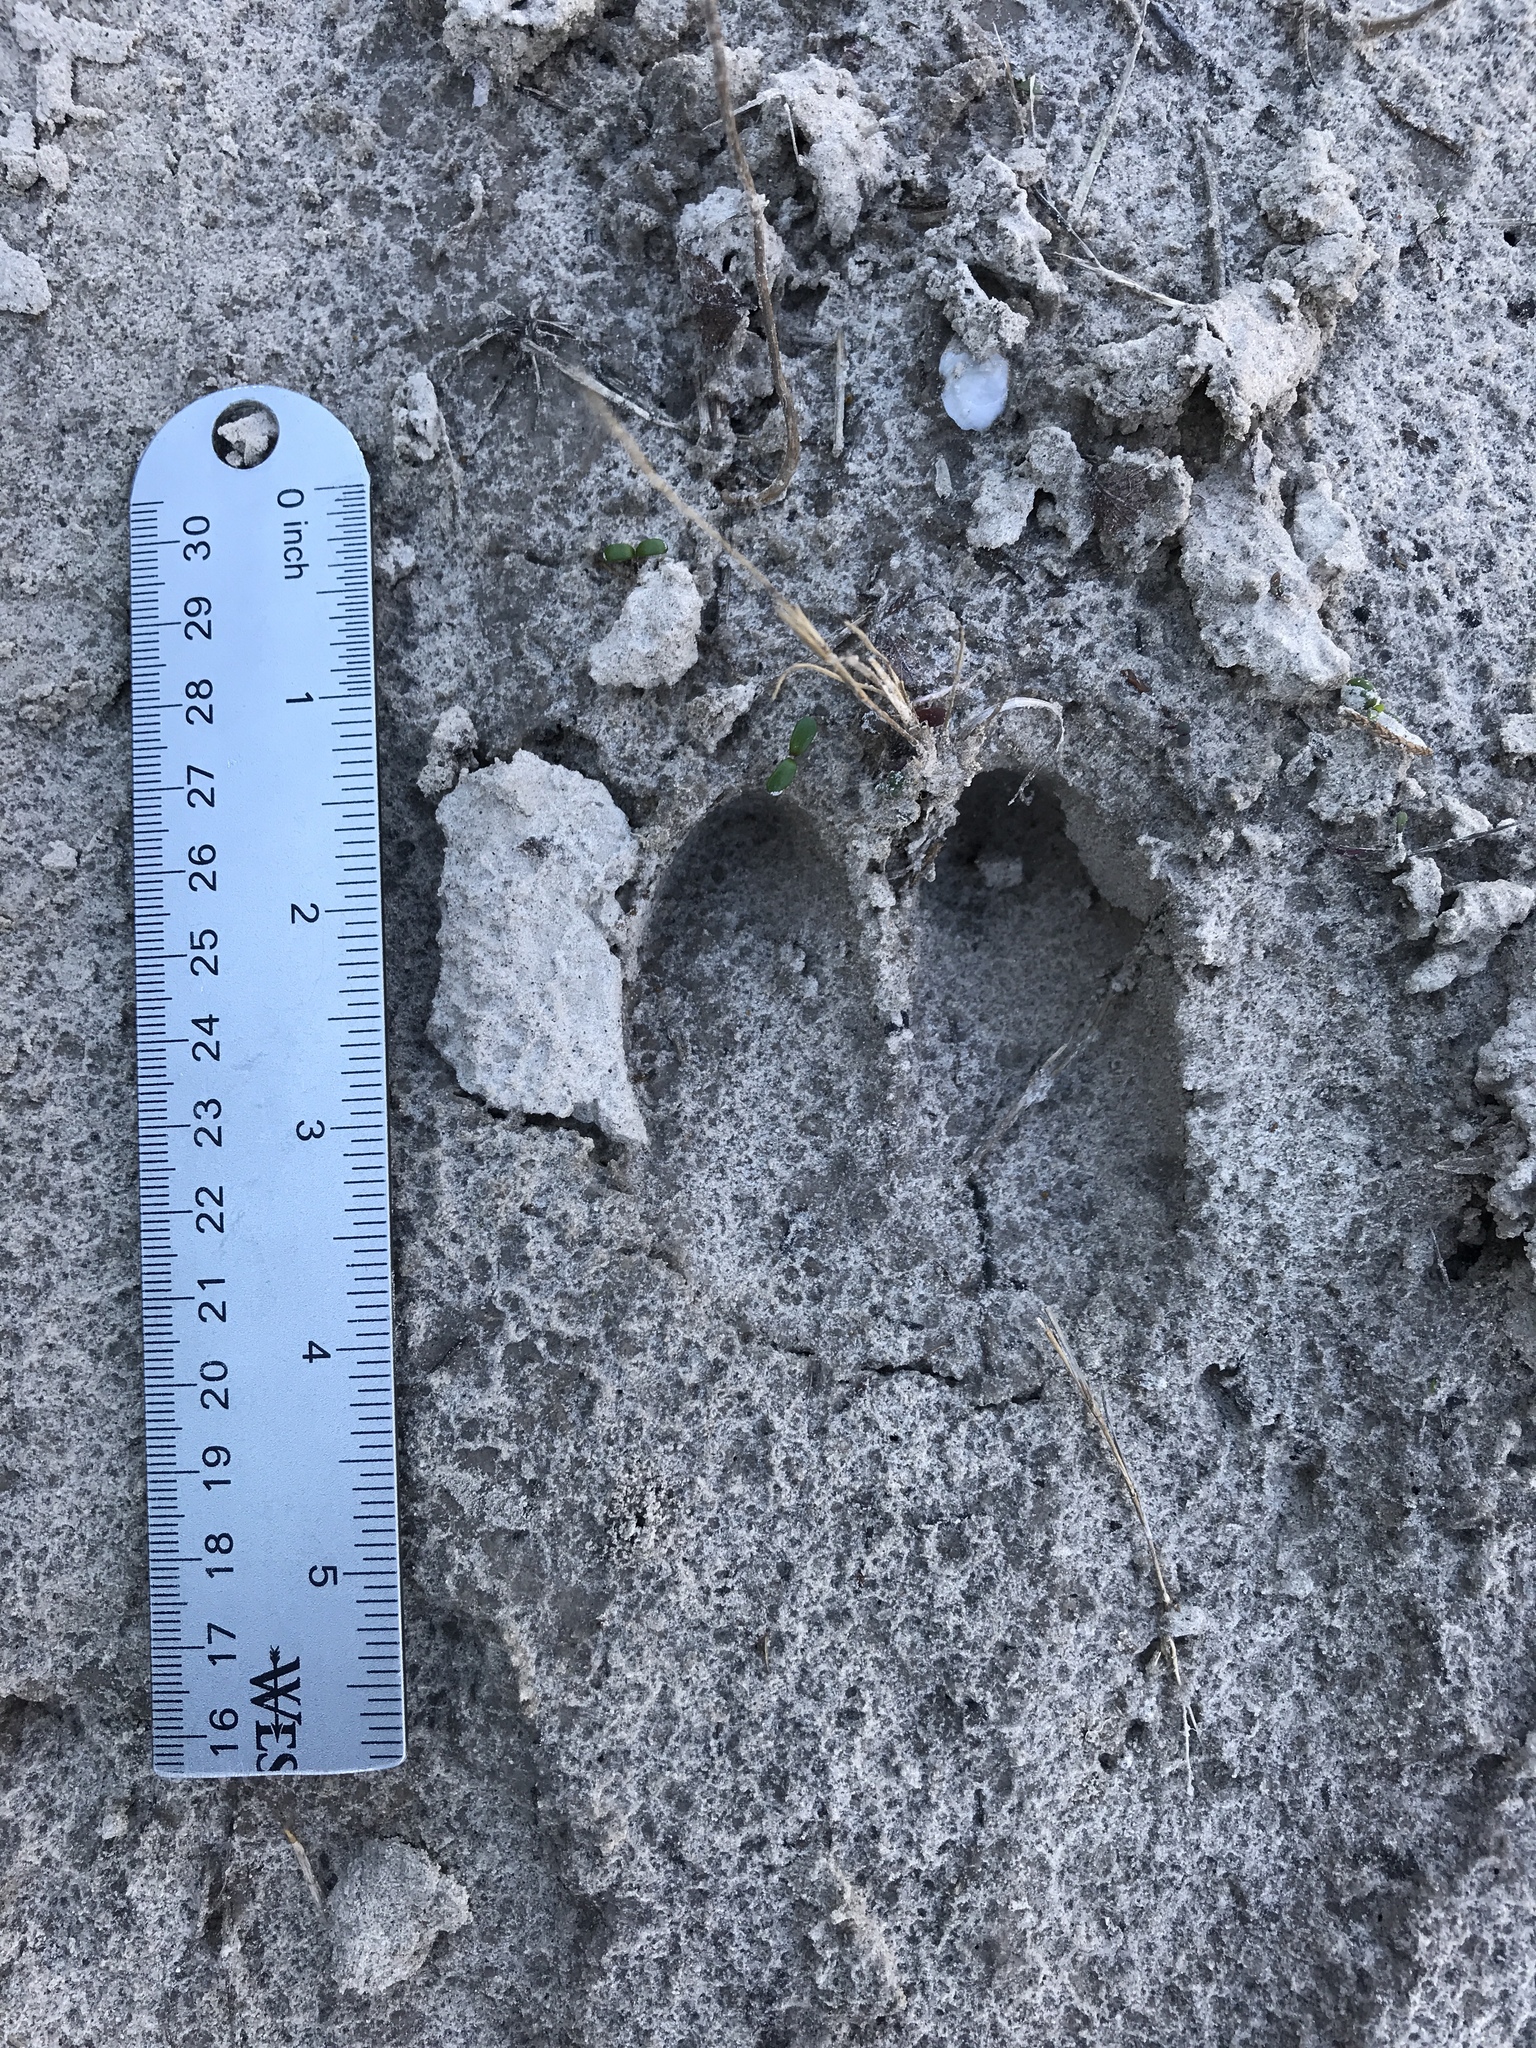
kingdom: Animalia
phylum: Chordata
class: Mammalia
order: Artiodactyla
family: Suidae
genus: Sus
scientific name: Sus scrofa
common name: Wild boar
